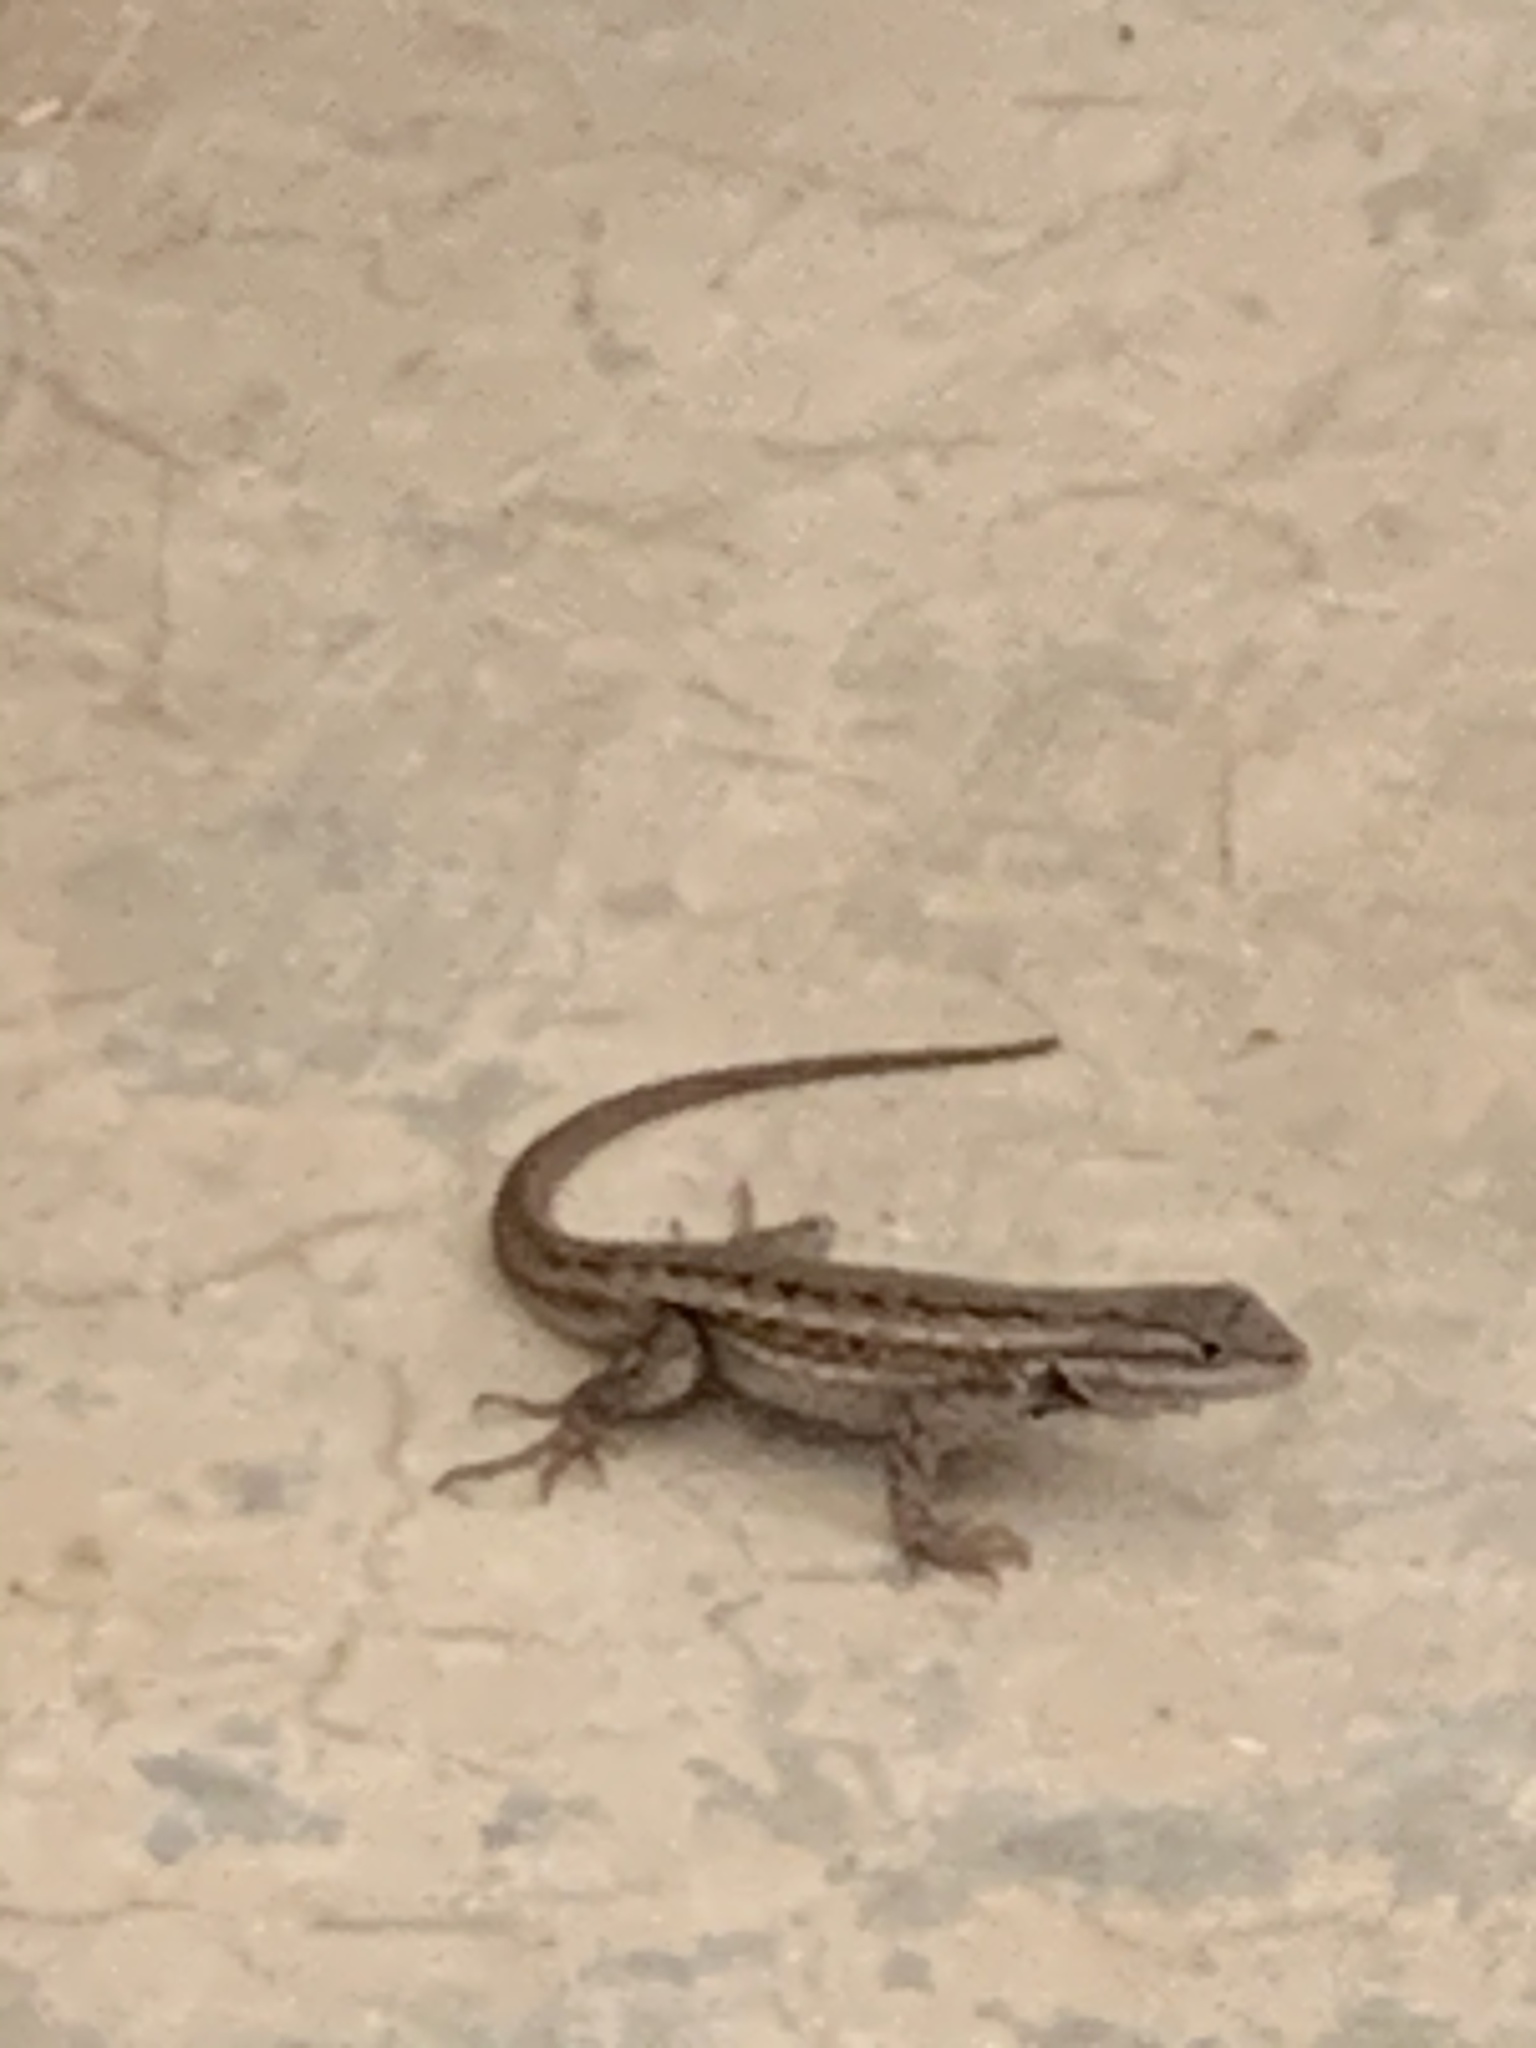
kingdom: Animalia
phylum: Chordata
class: Squamata
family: Phrynosomatidae
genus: Sceloporus
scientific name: Sceloporus cowlesi
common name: White sands prairie lizard
